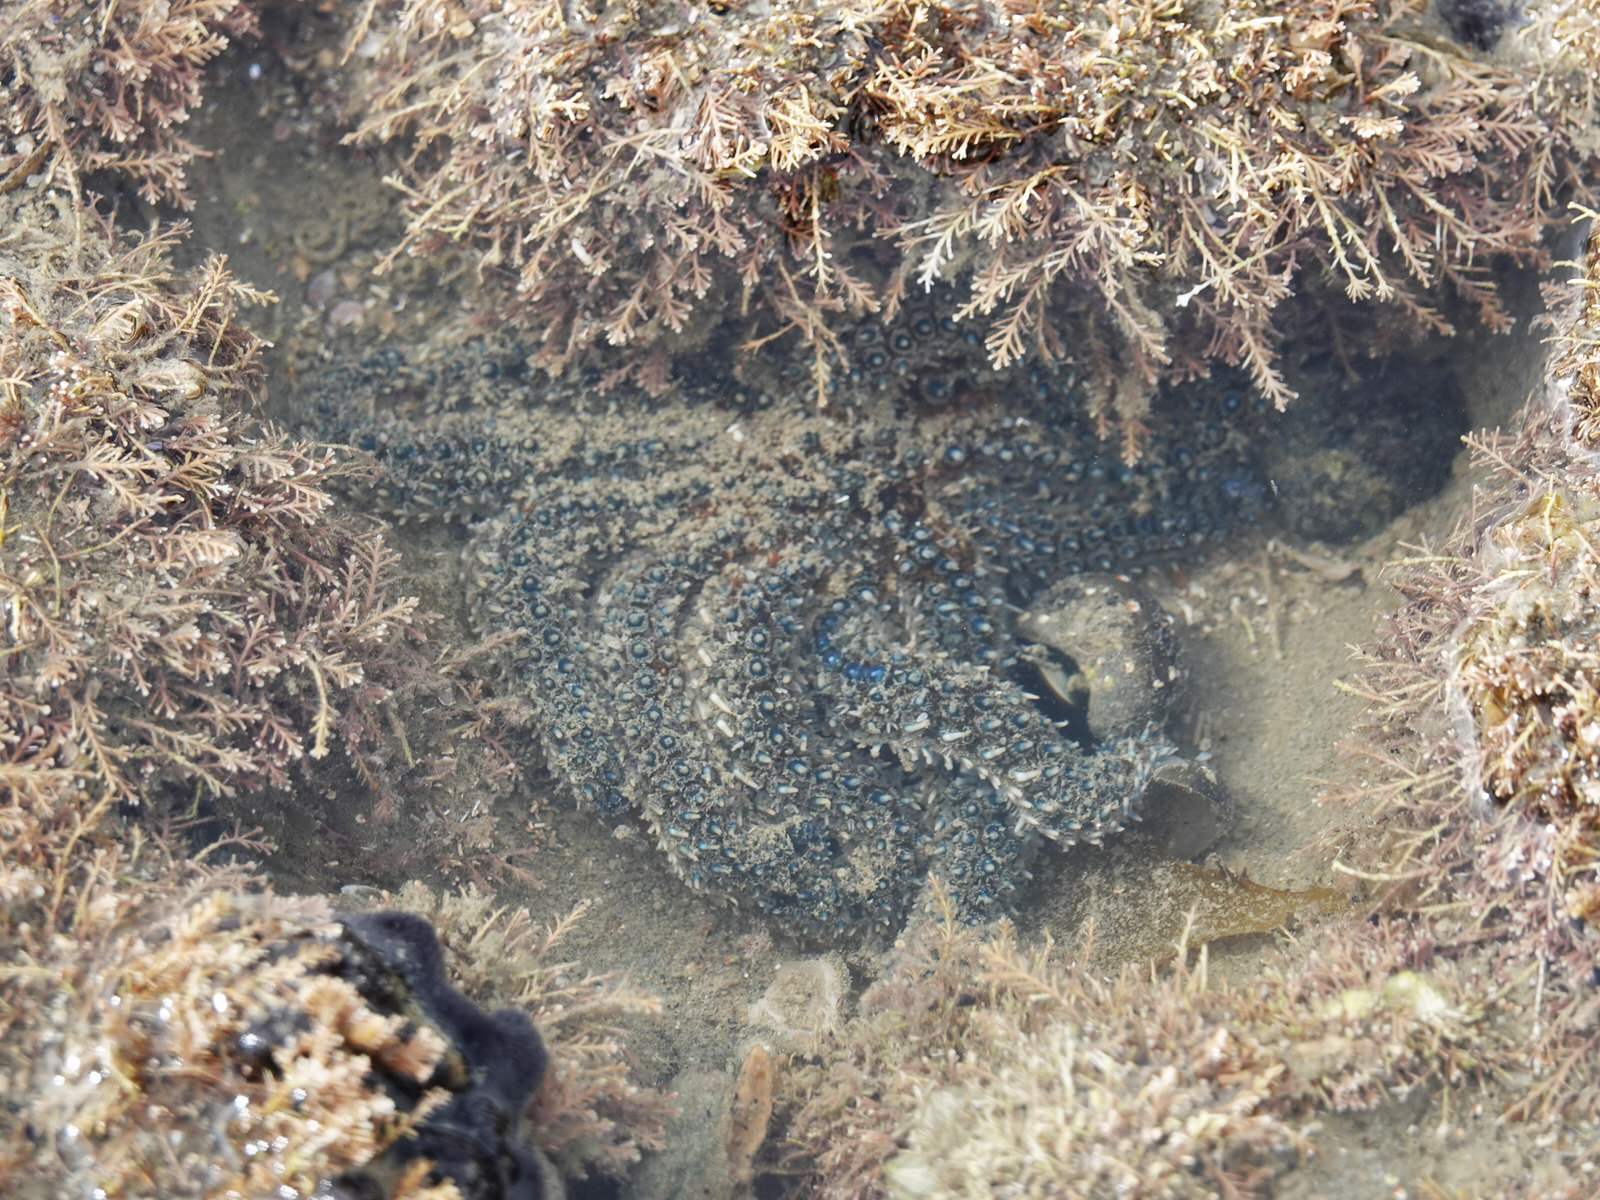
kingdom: Animalia
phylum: Echinodermata
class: Asteroidea
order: Forcipulatida
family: Asteriidae
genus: Coscinasterias
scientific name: Coscinasterias muricata
